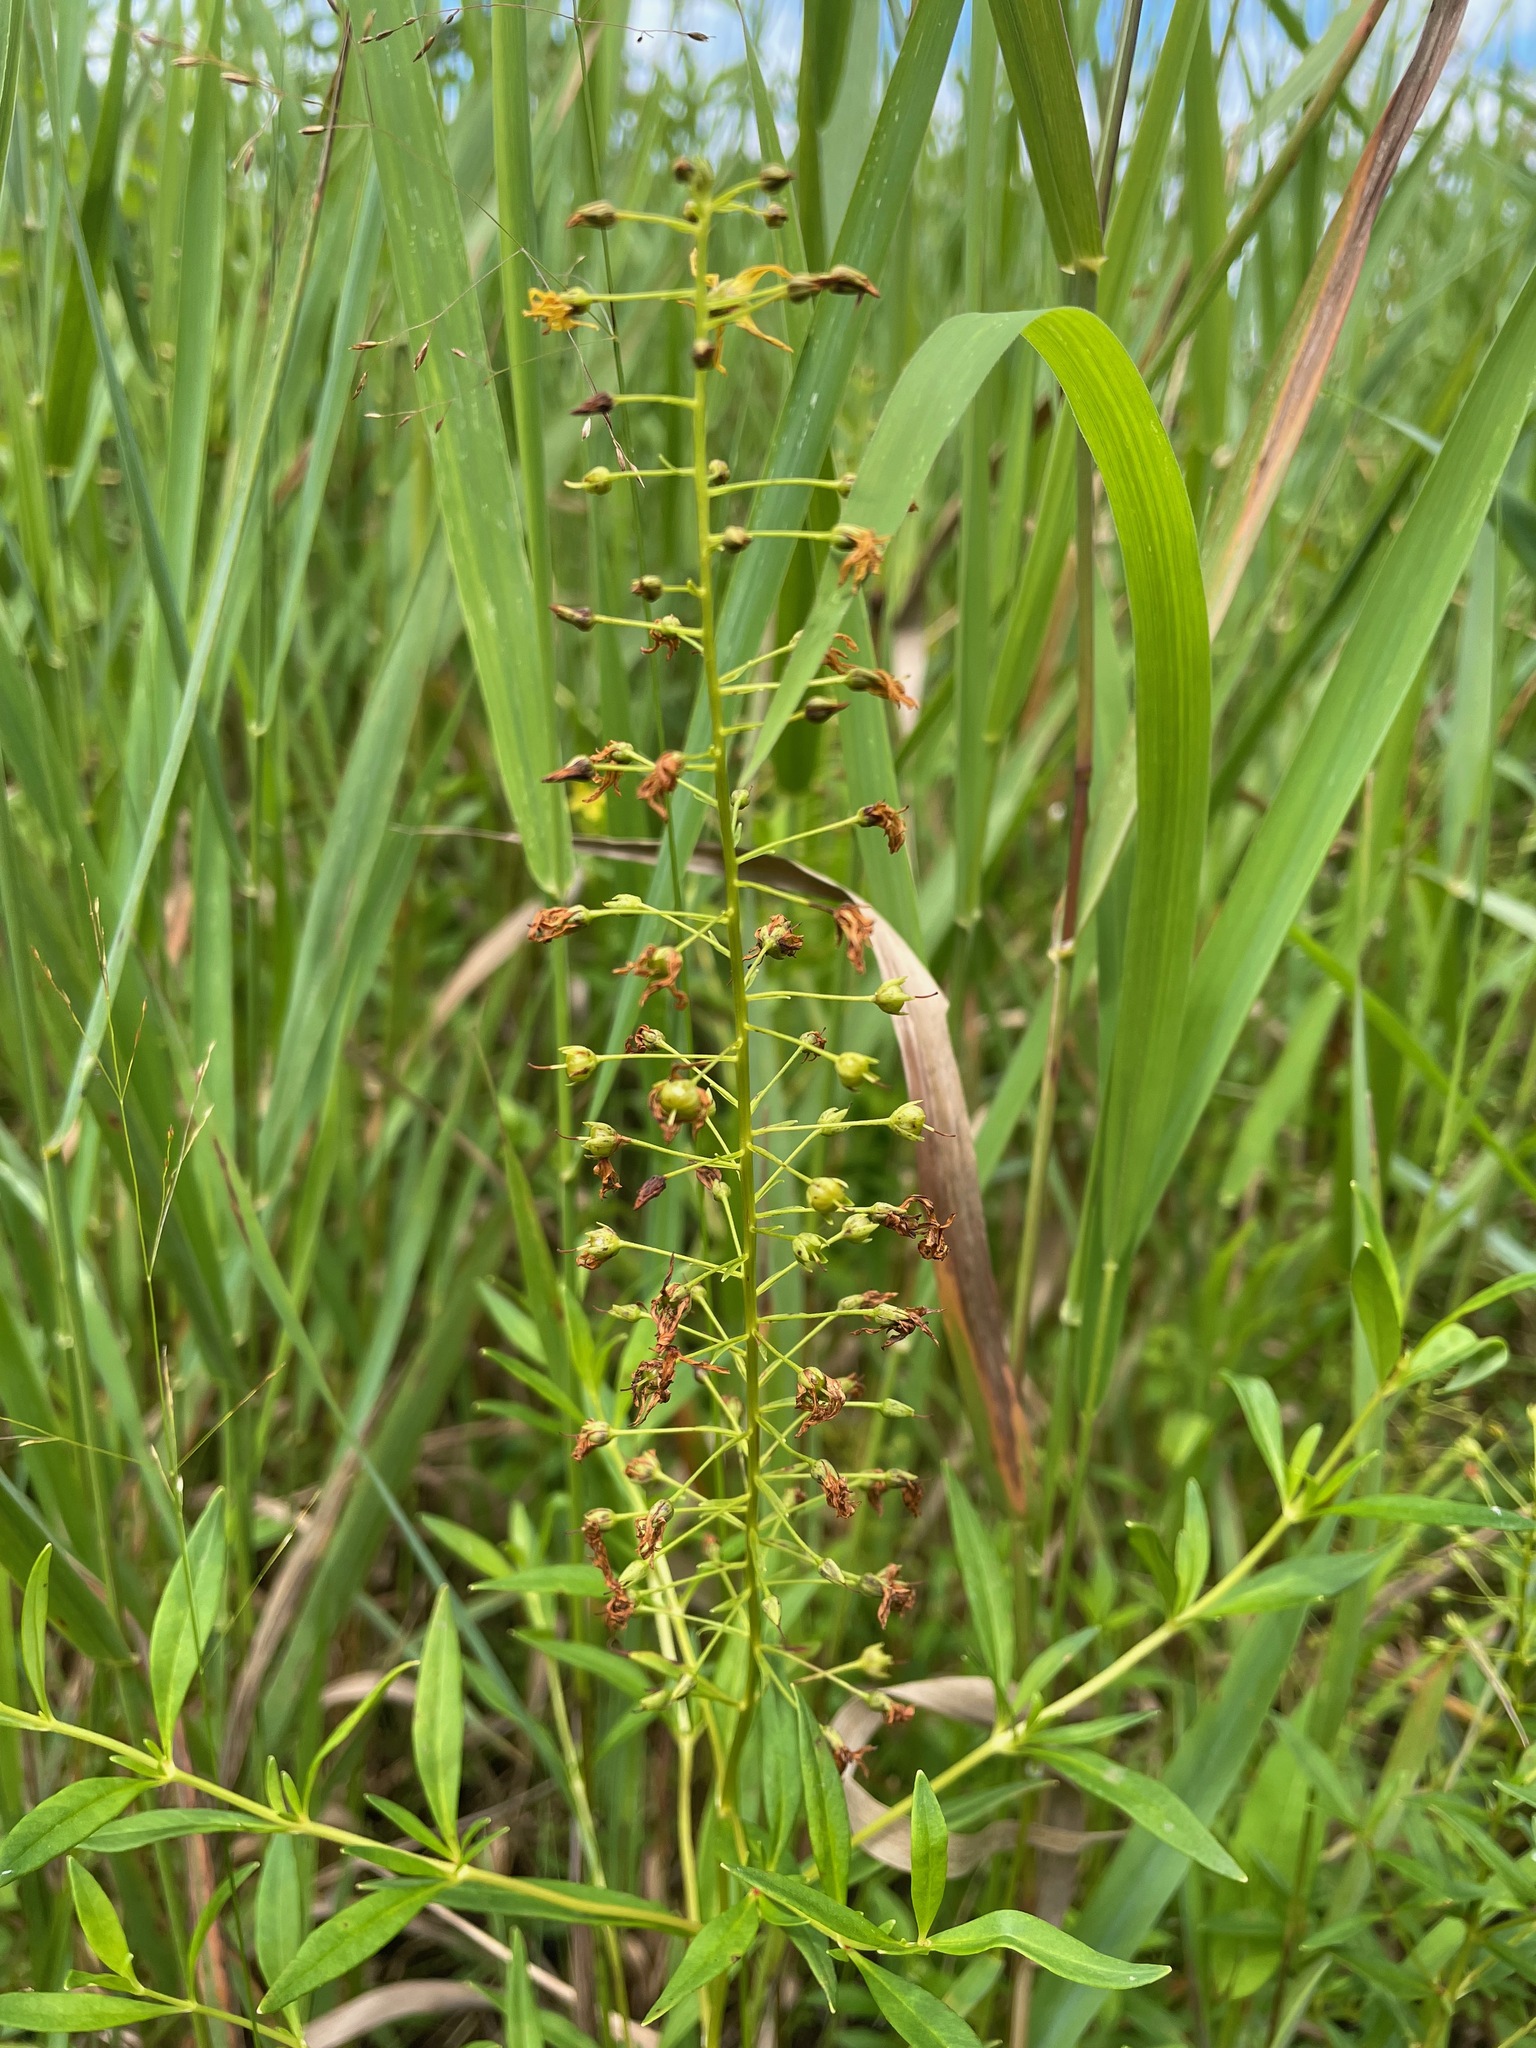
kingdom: Plantae
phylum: Tracheophyta
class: Magnoliopsida
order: Ericales
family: Primulaceae
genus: Lysimachia
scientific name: Lysimachia terrestris
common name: Lake loosestrife
